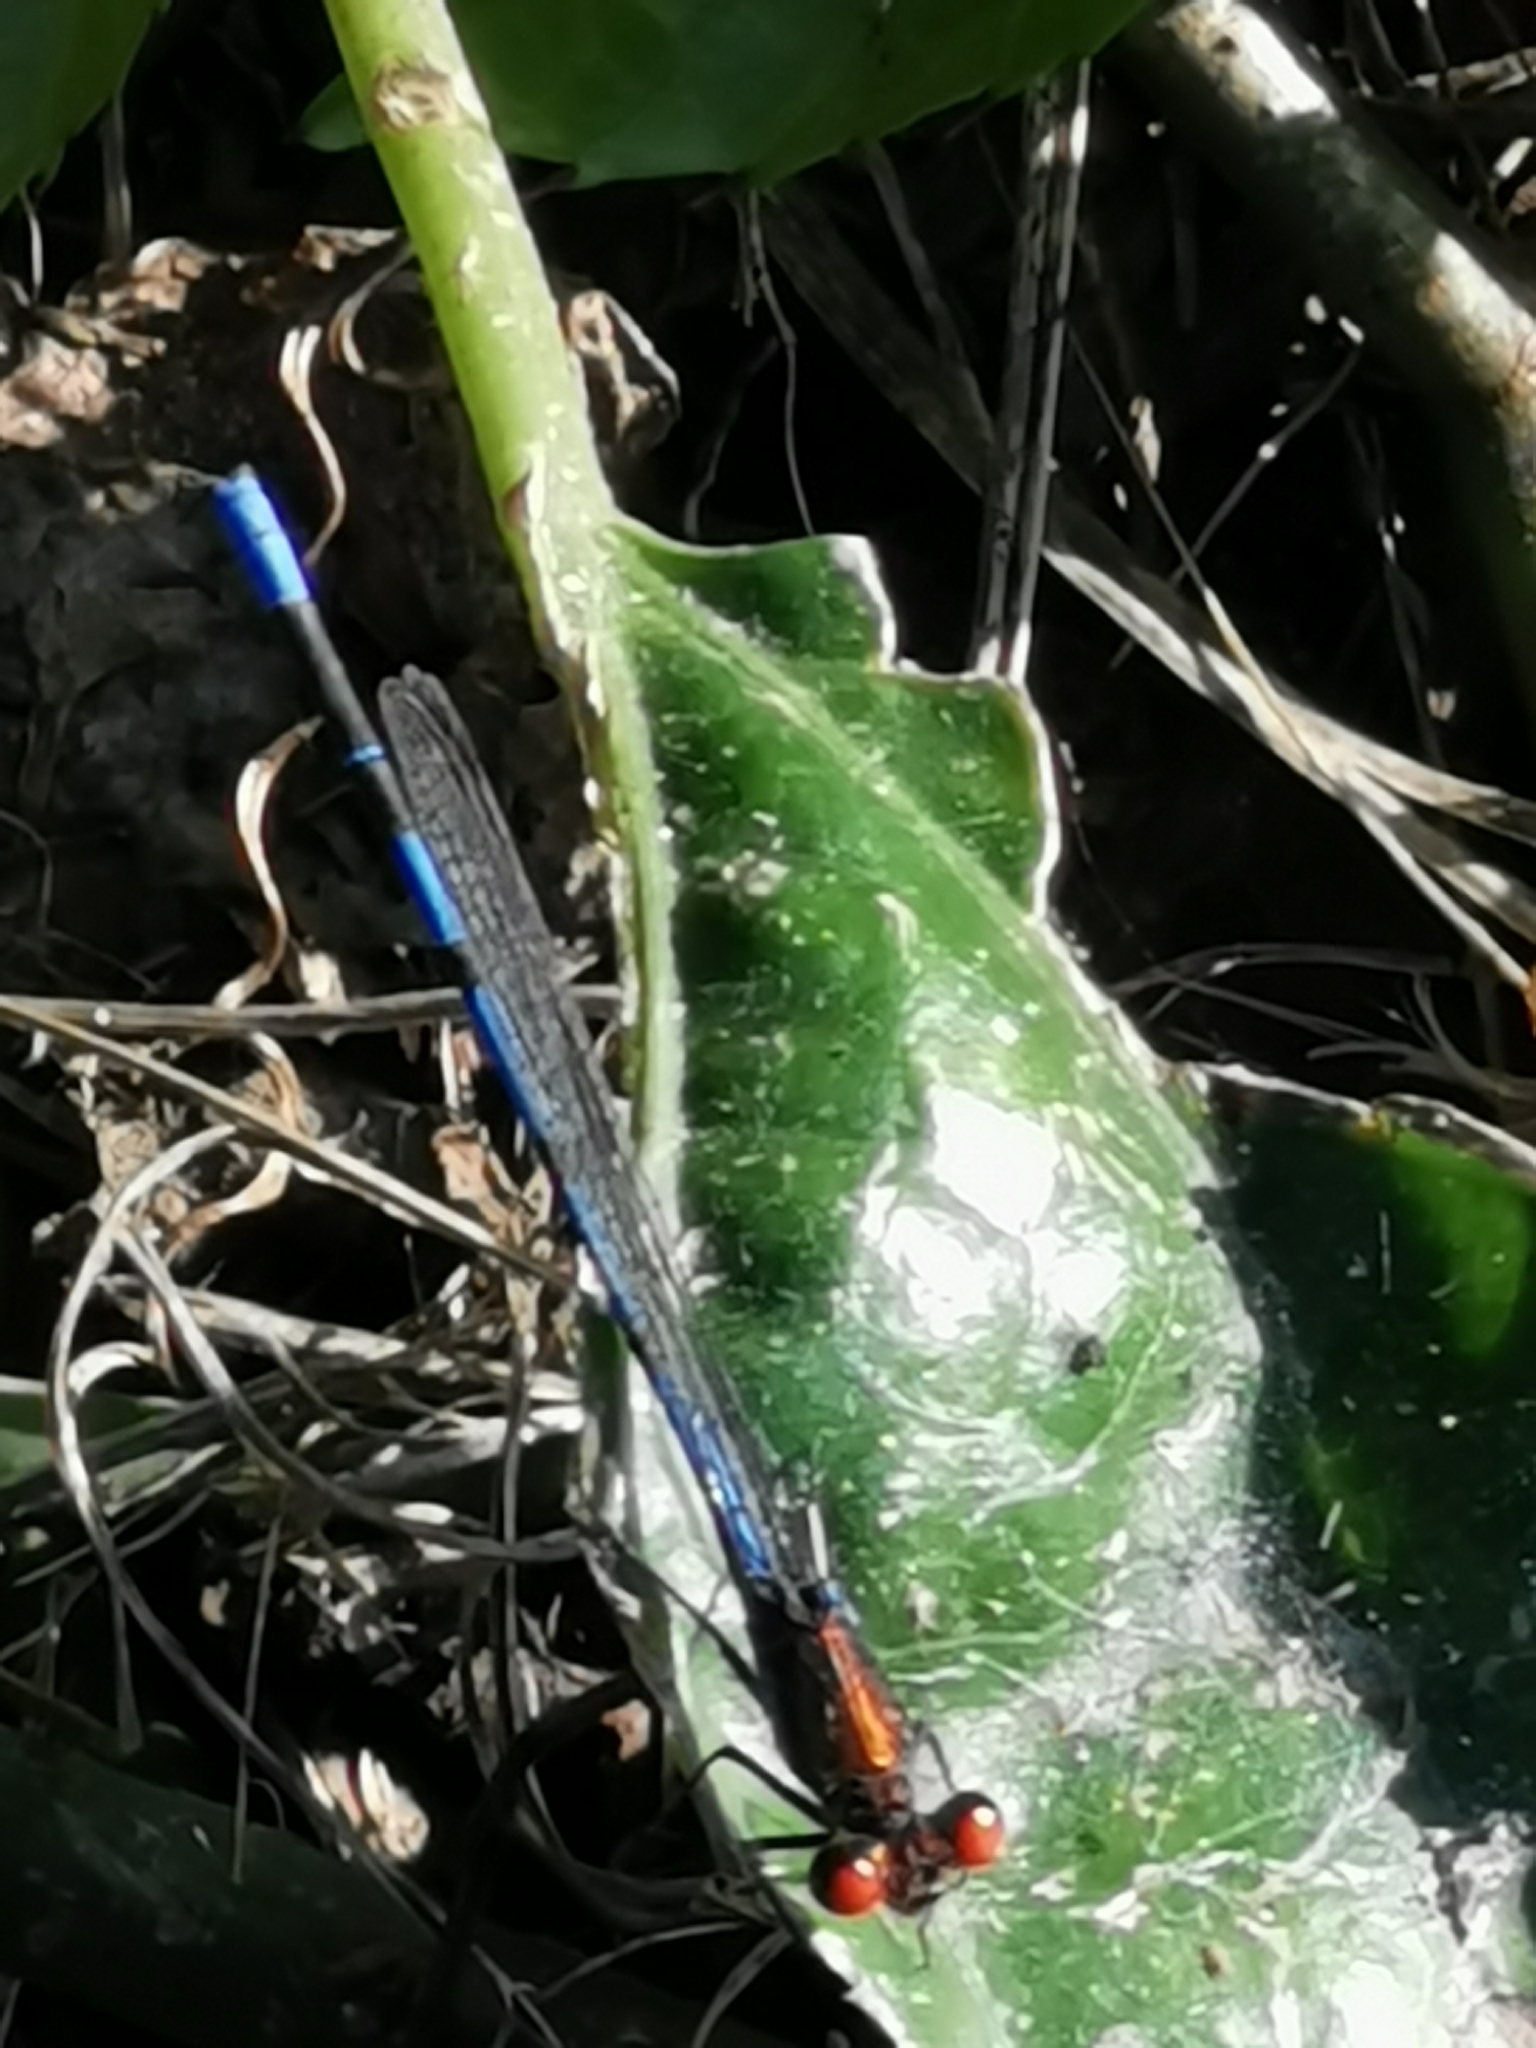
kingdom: Animalia
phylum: Arthropoda
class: Insecta
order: Odonata
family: Coenagrionidae
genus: Argia
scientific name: Argia oenea
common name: Fiery-eyed dancer
